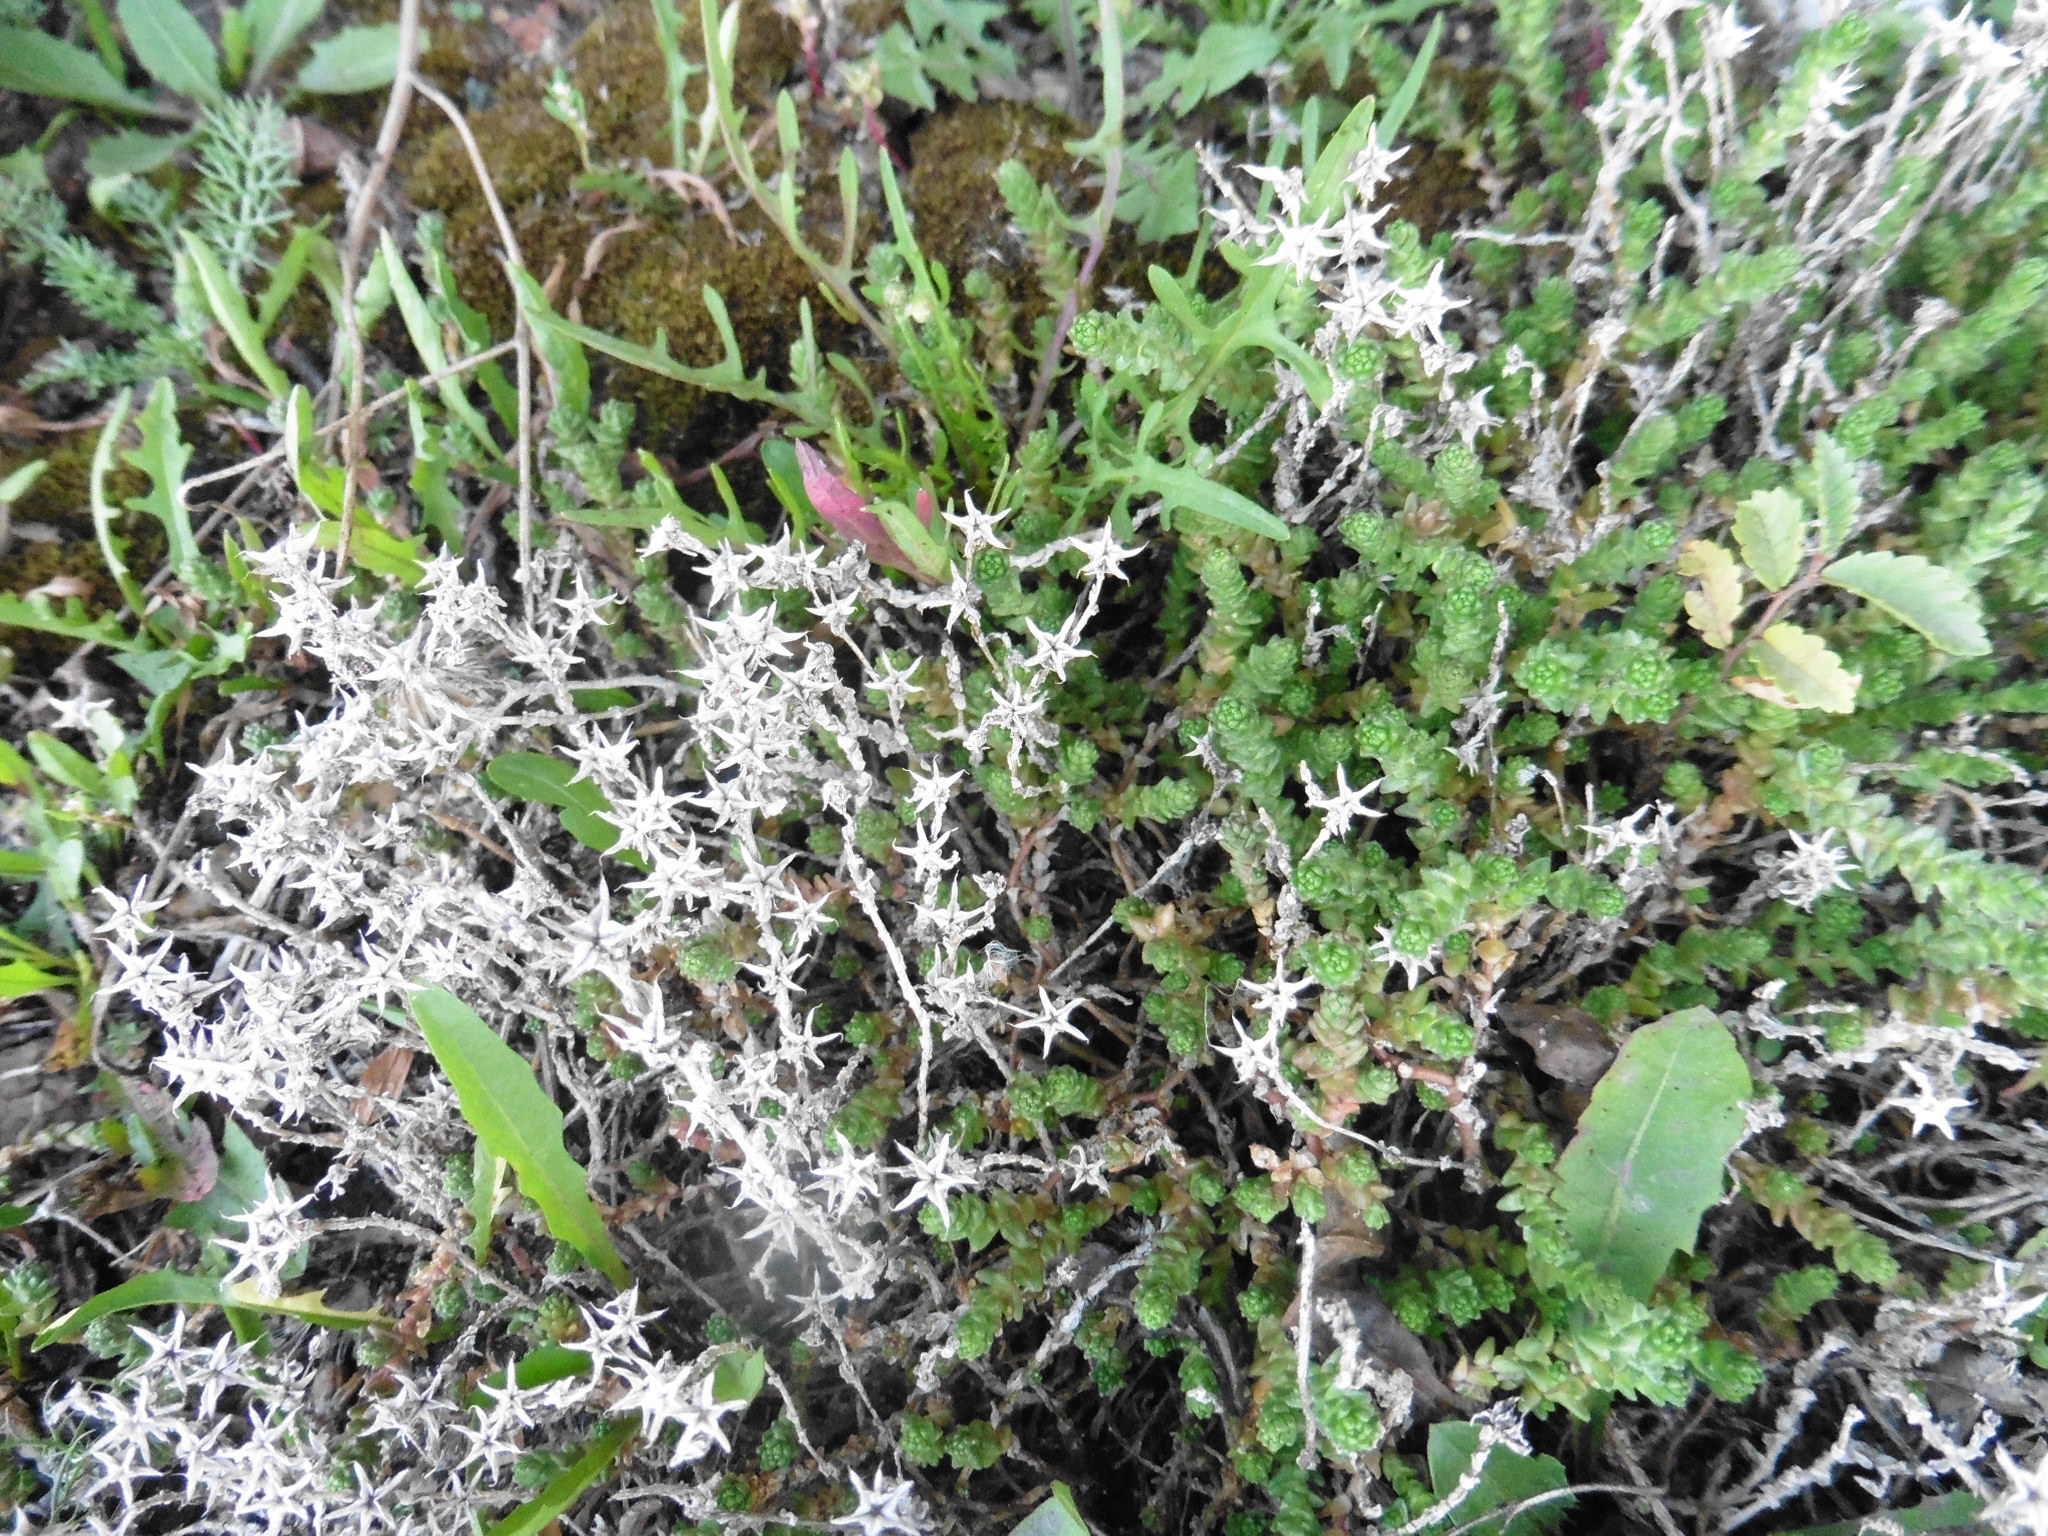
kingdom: Plantae
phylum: Tracheophyta
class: Magnoliopsida
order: Saxifragales
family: Crassulaceae
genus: Sedum
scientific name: Sedum acre
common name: Biting stonecrop
